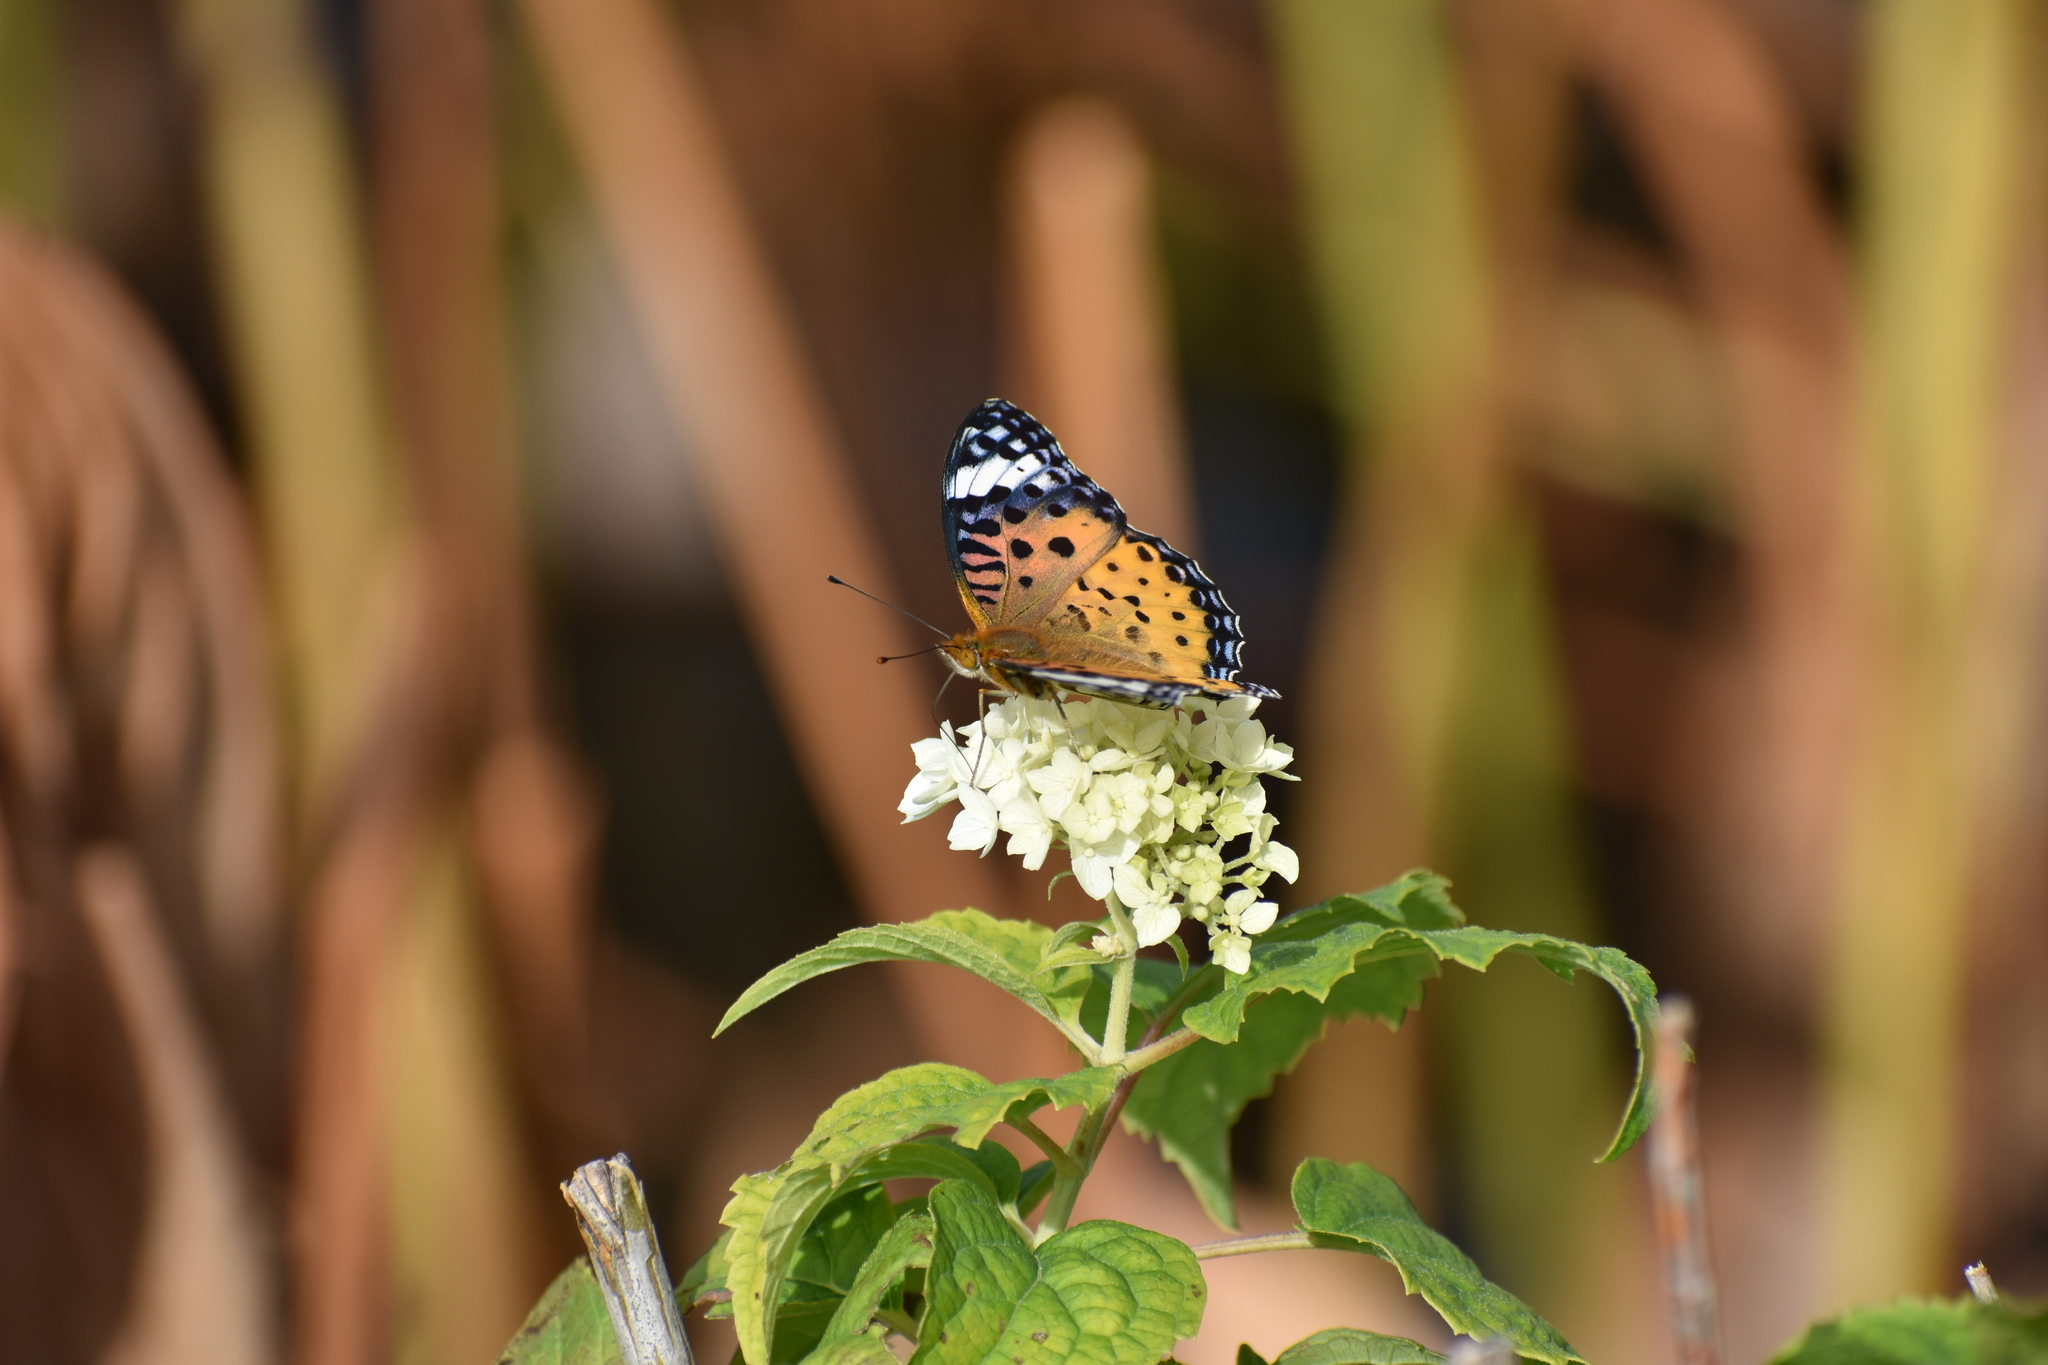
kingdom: Animalia
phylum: Arthropoda
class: Insecta
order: Lepidoptera
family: Nymphalidae
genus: Argynnis
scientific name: Argynnis hyperbius
